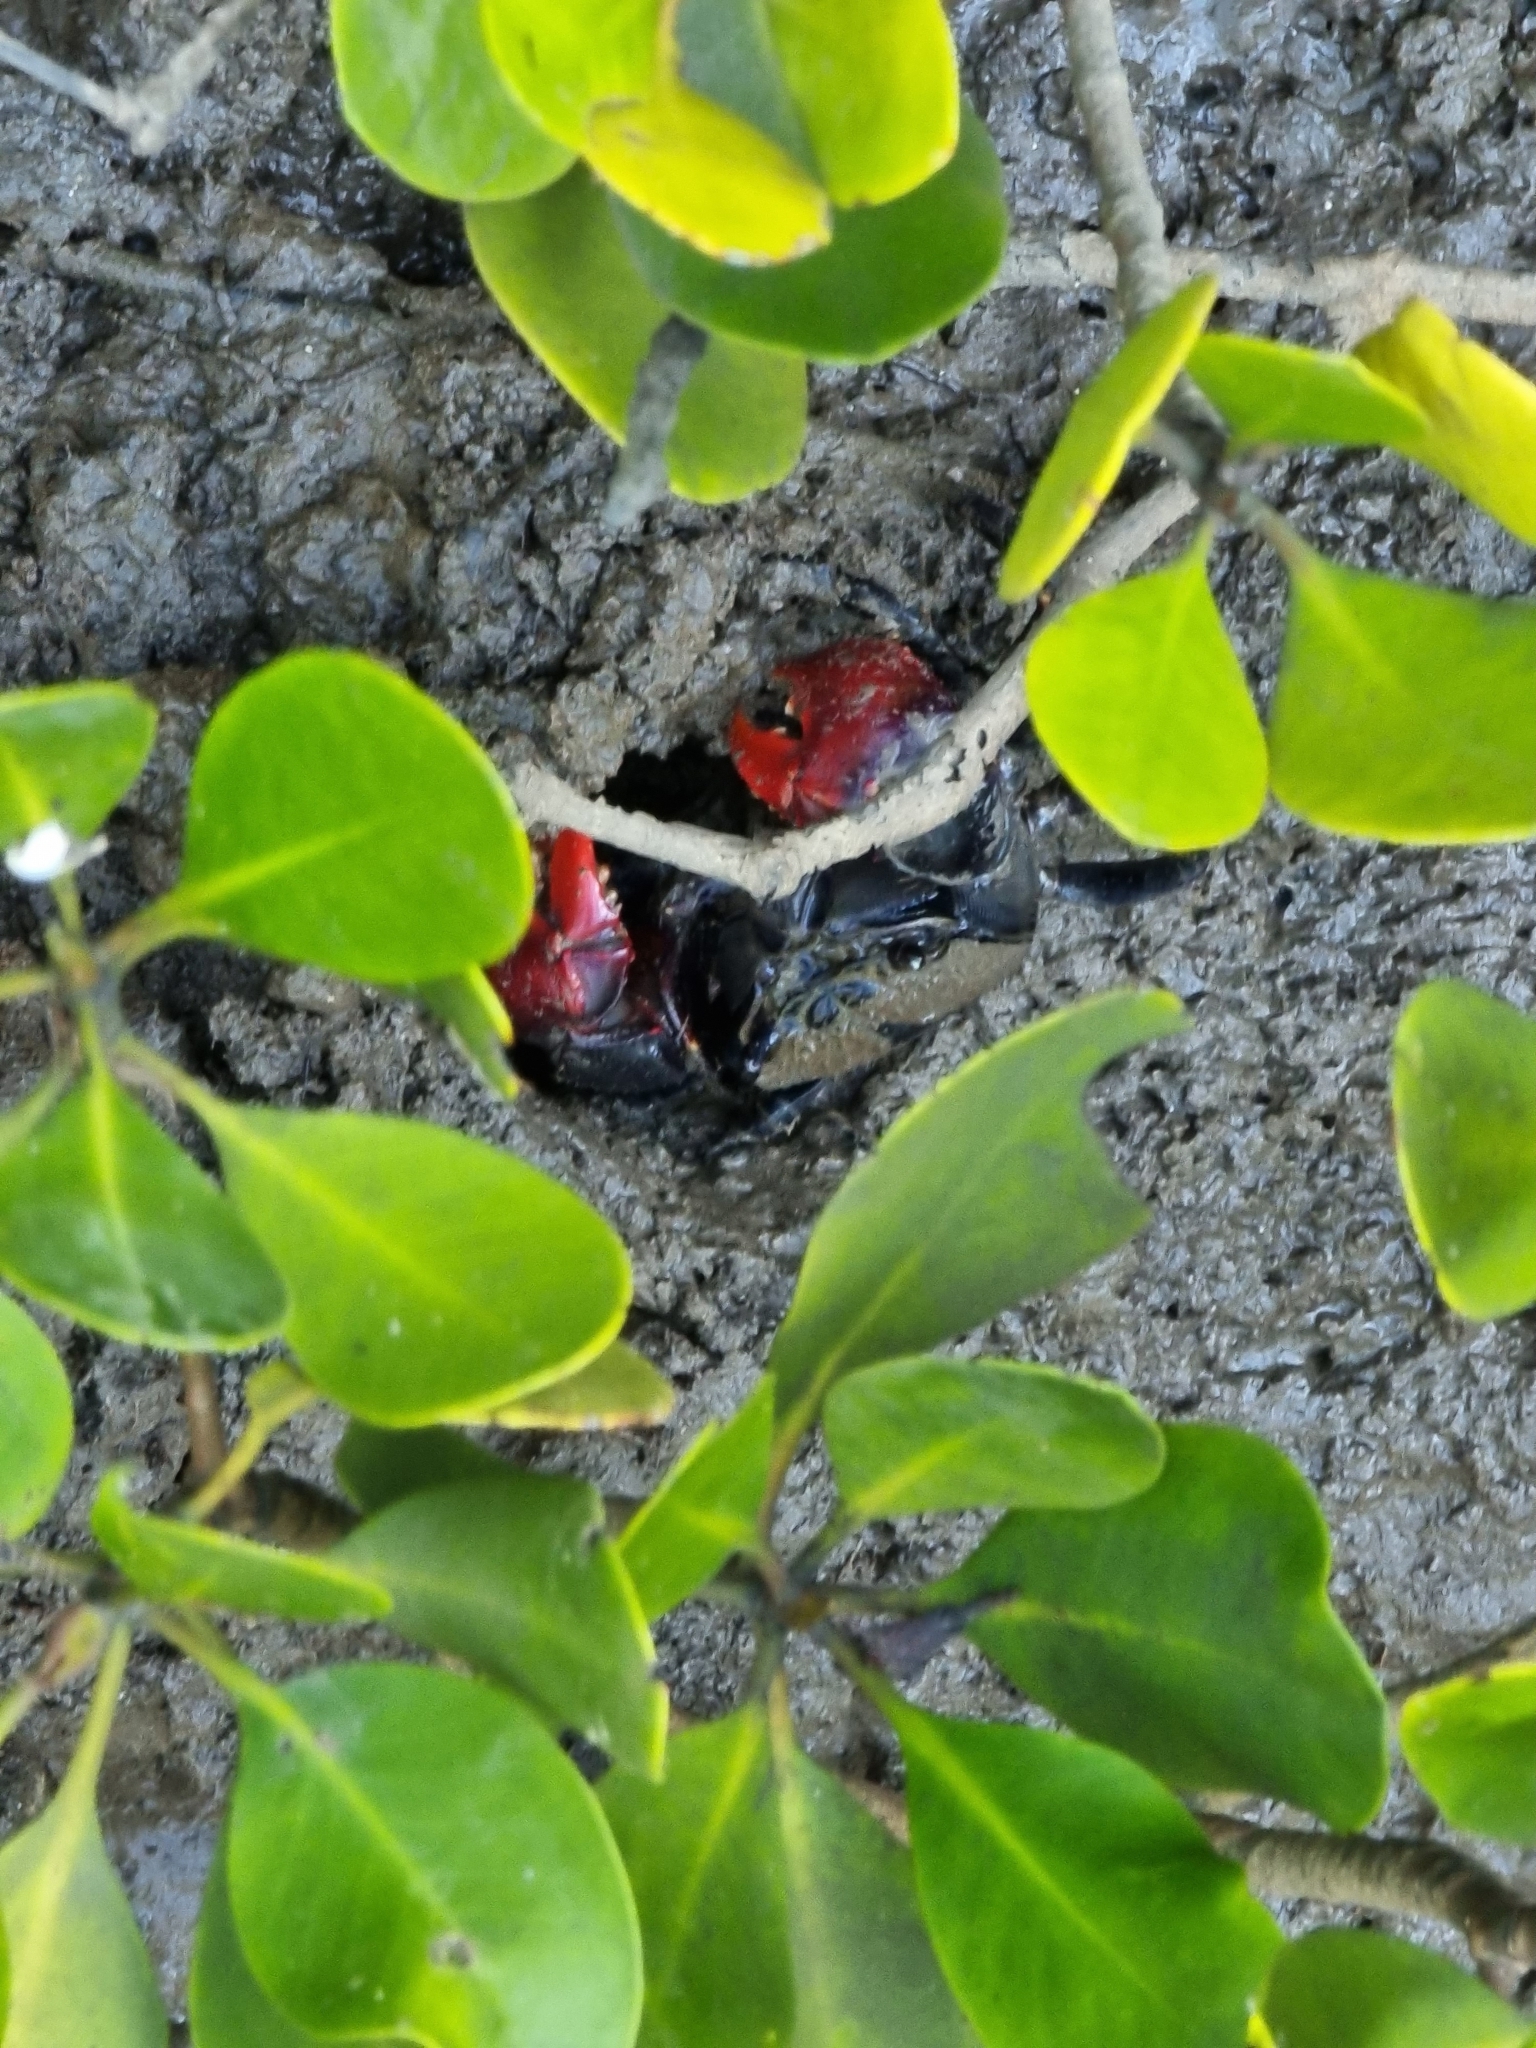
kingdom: Animalia
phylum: Arthropoda
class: Malacostraca
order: Decapoda
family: Sesarmidae
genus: Neosarmatium
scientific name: Neosarmatium trispinosum
